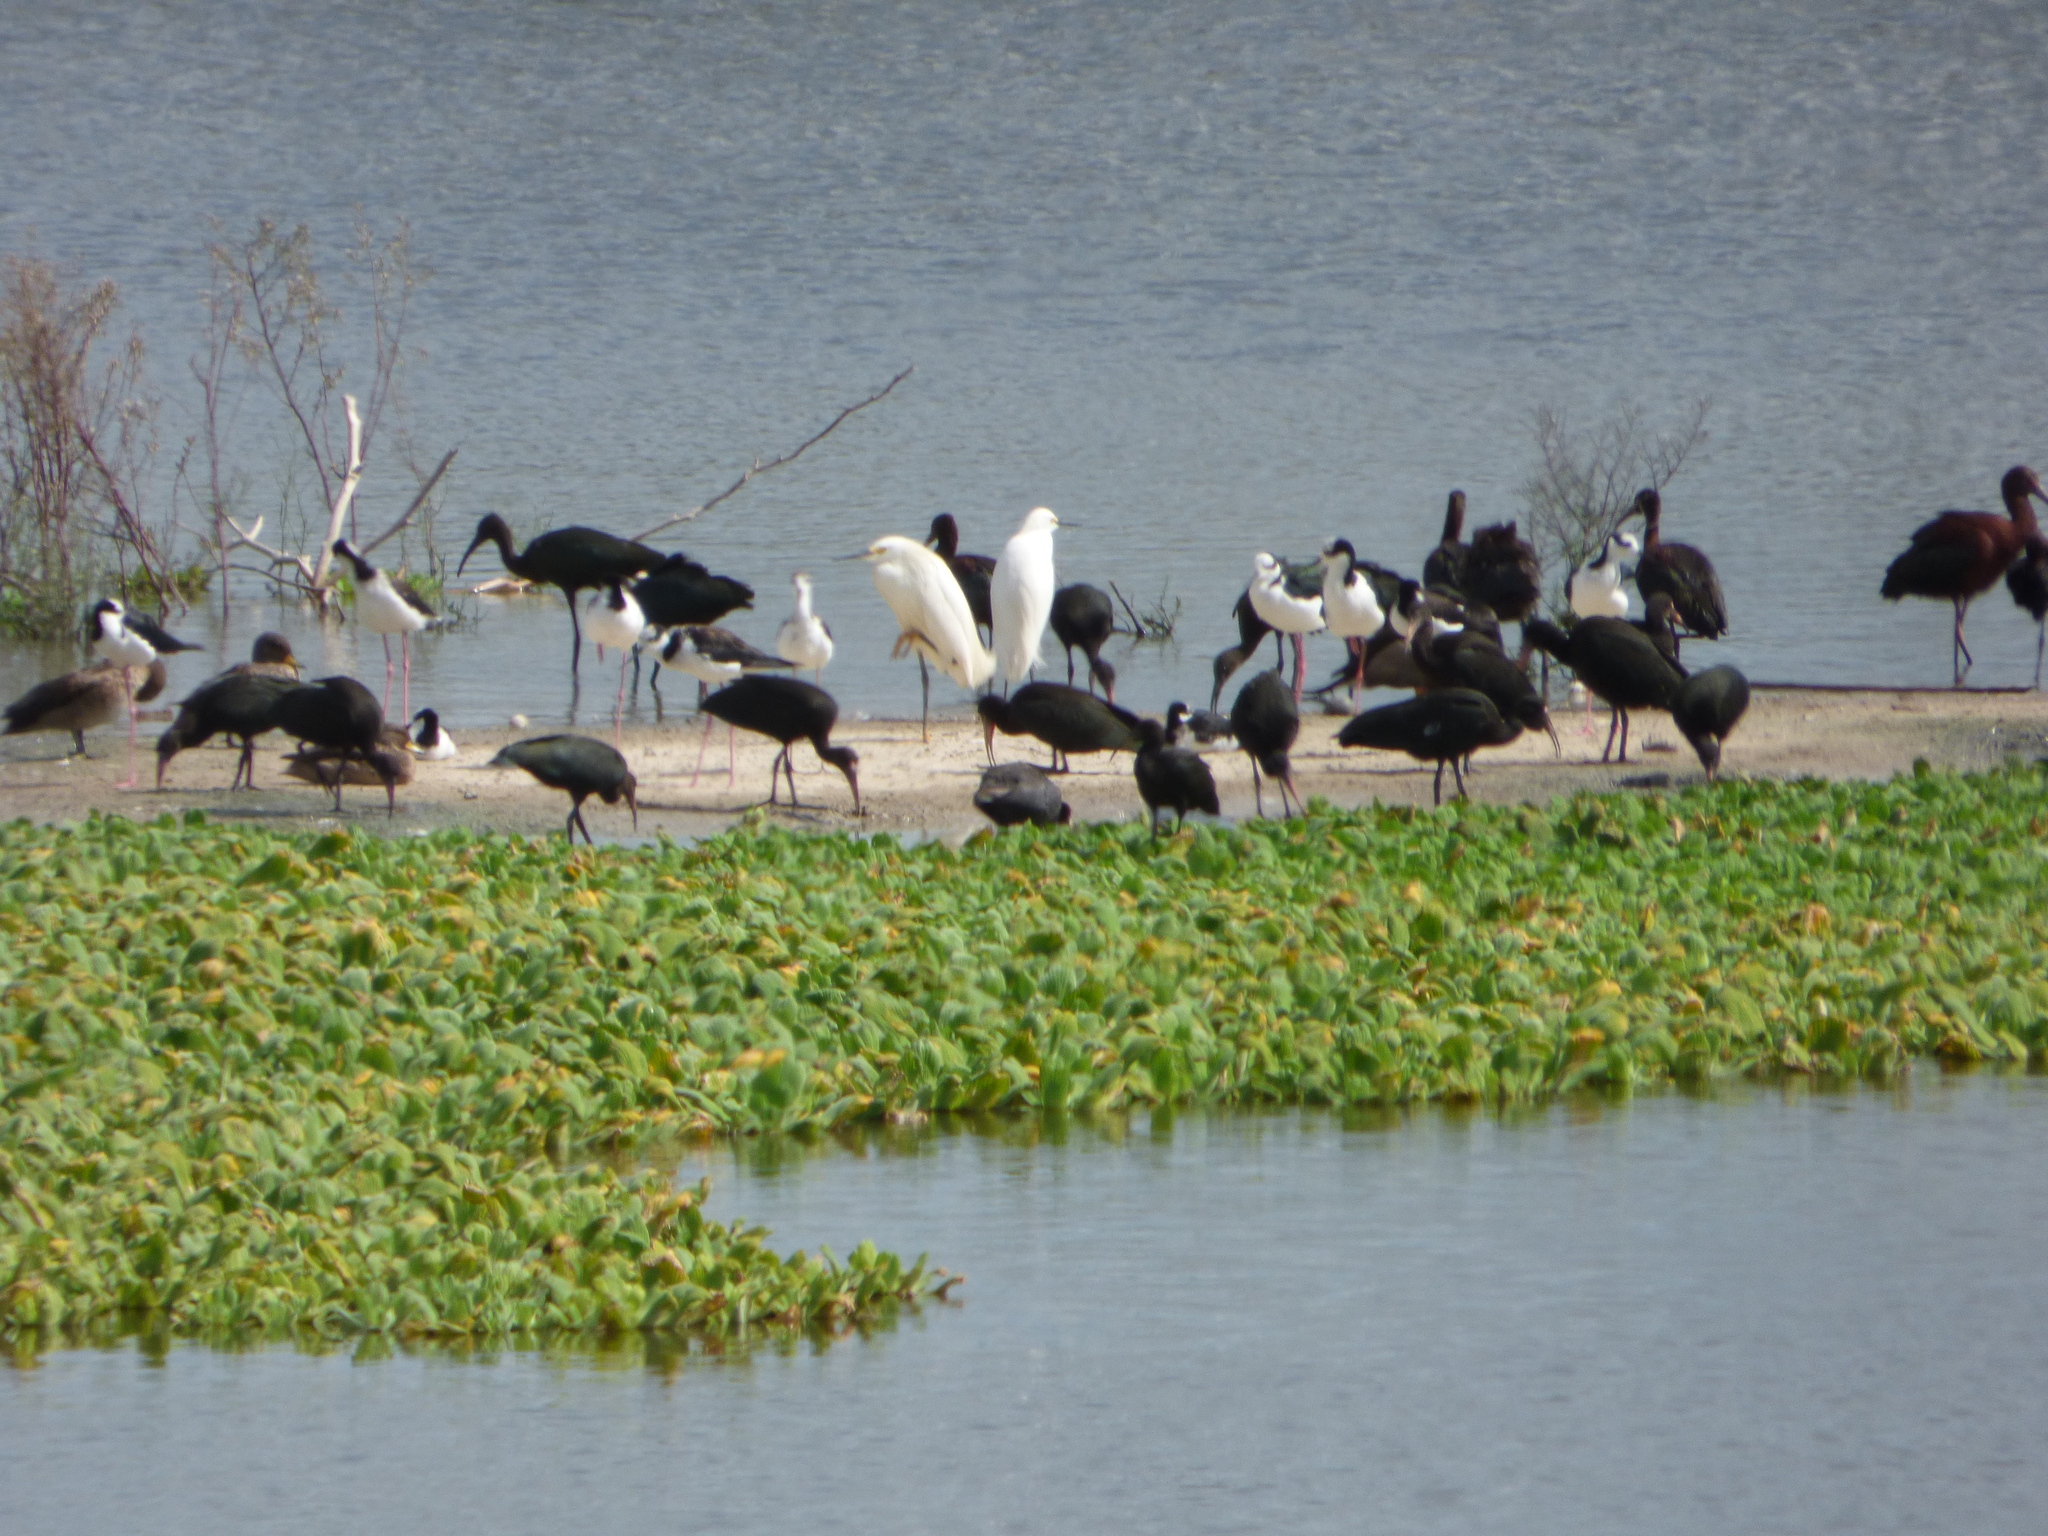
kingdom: Animalia
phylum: Chordata
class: Aves
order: Pelecaniformes
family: Ardeidae
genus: Egretta
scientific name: Egretta thula
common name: Snowy egret
